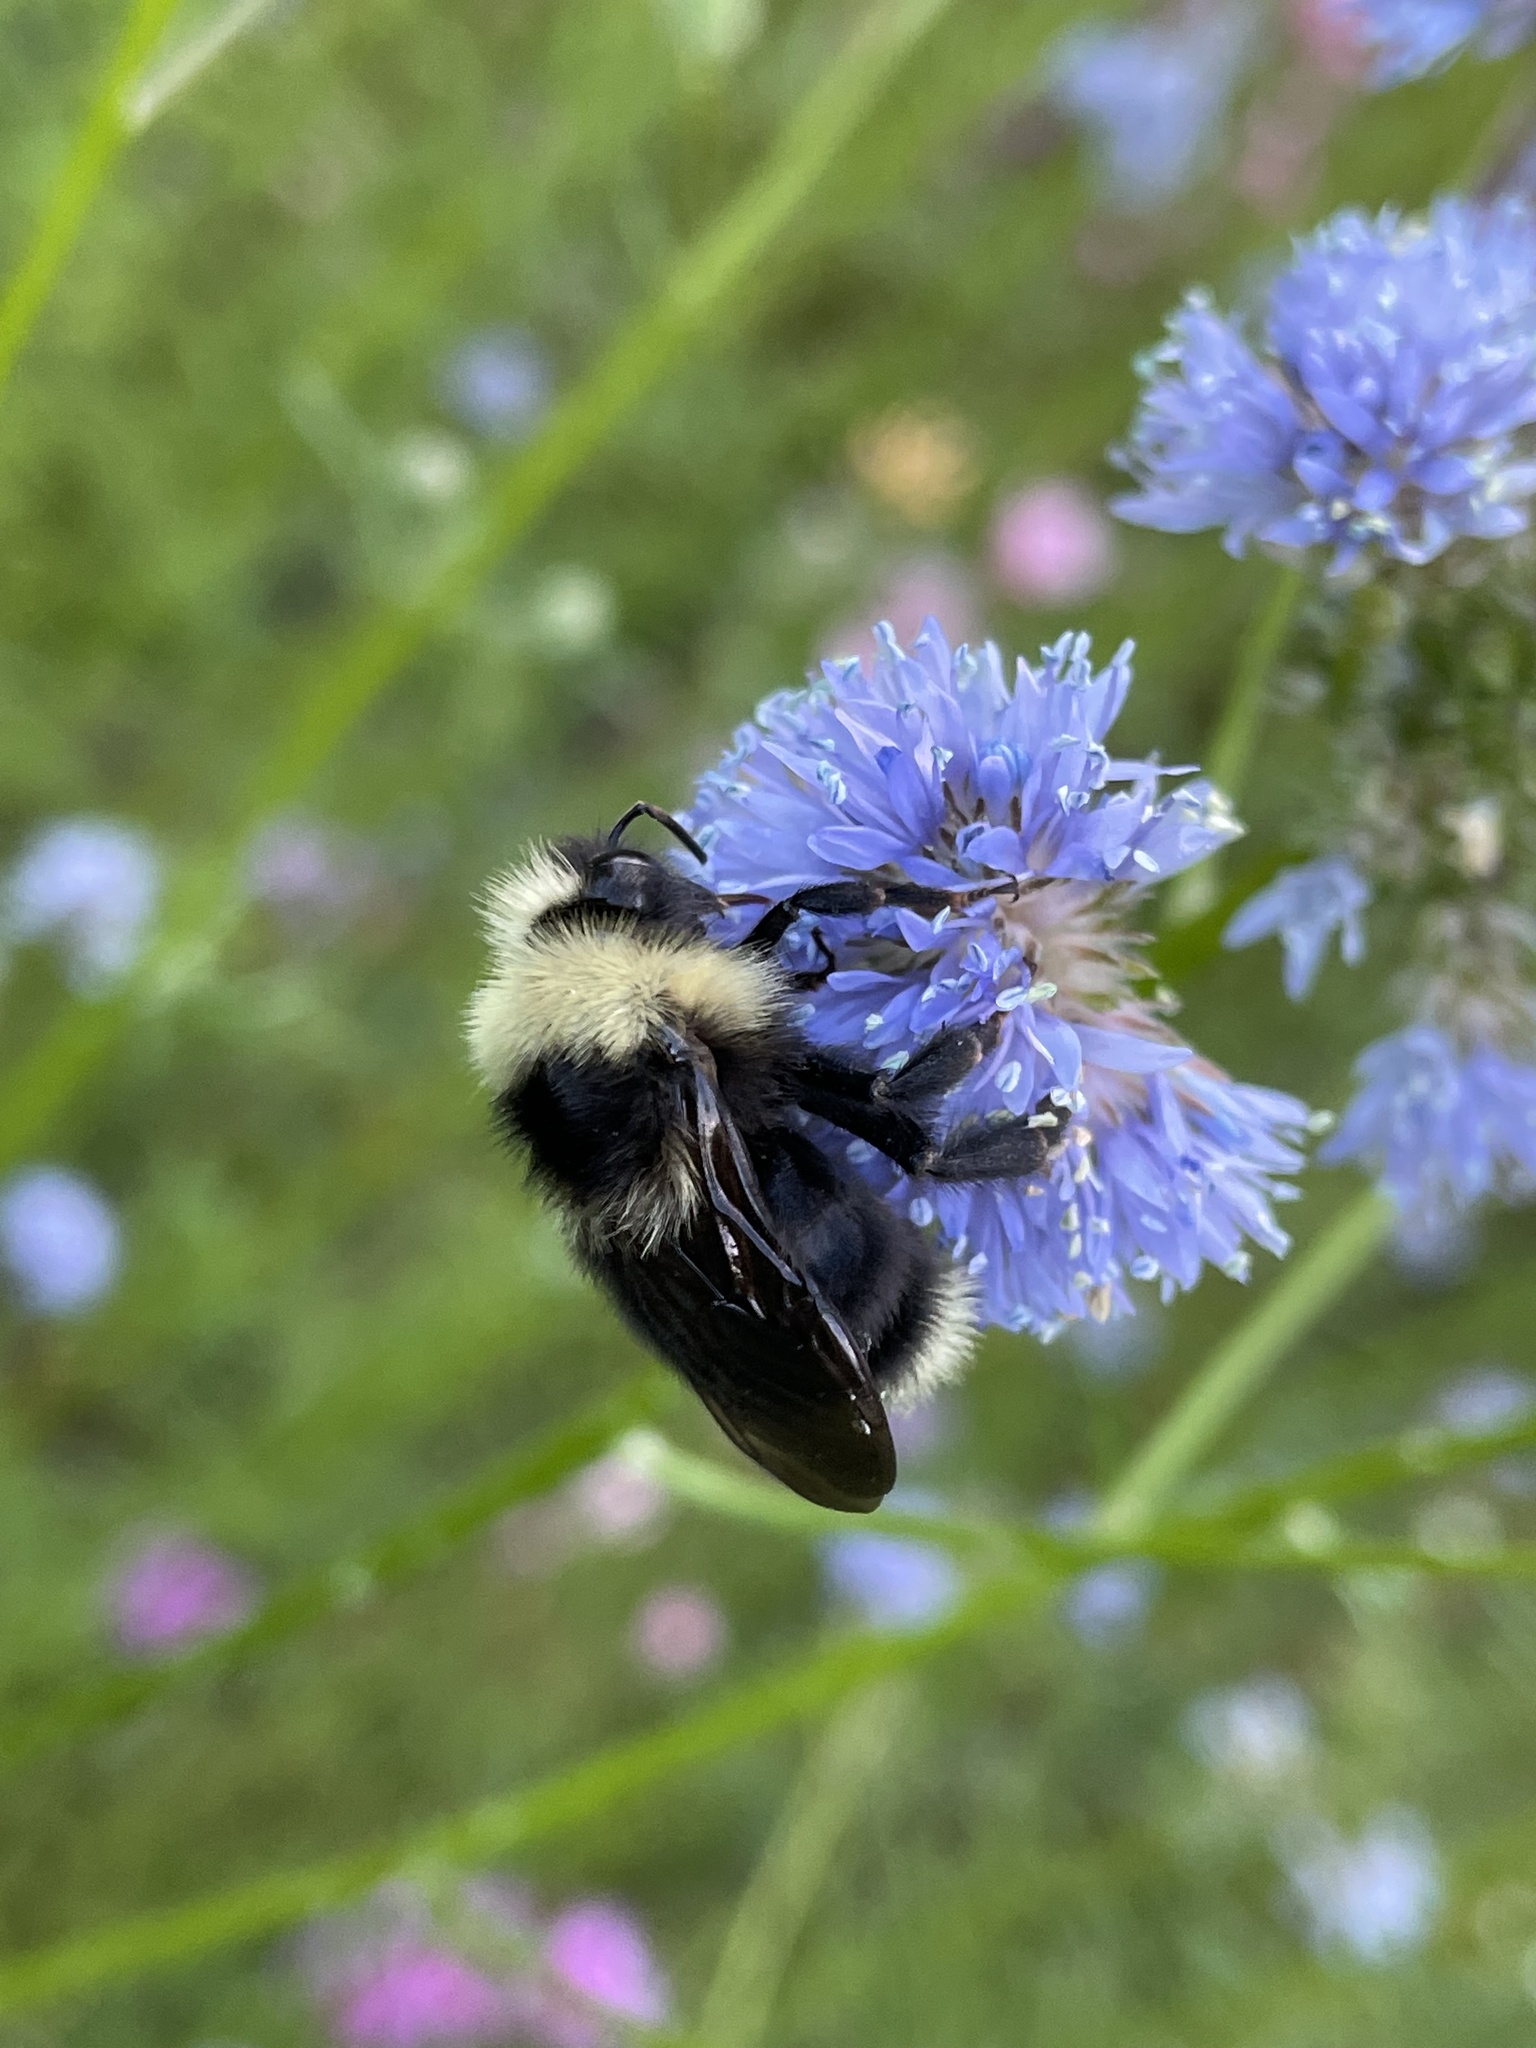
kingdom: Animalia
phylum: Arthropoda
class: Insecta
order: Hymenoptera
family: Apidae
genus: Bombus
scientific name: Bombus flavidus
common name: Fernald cuckoo bumble bee
